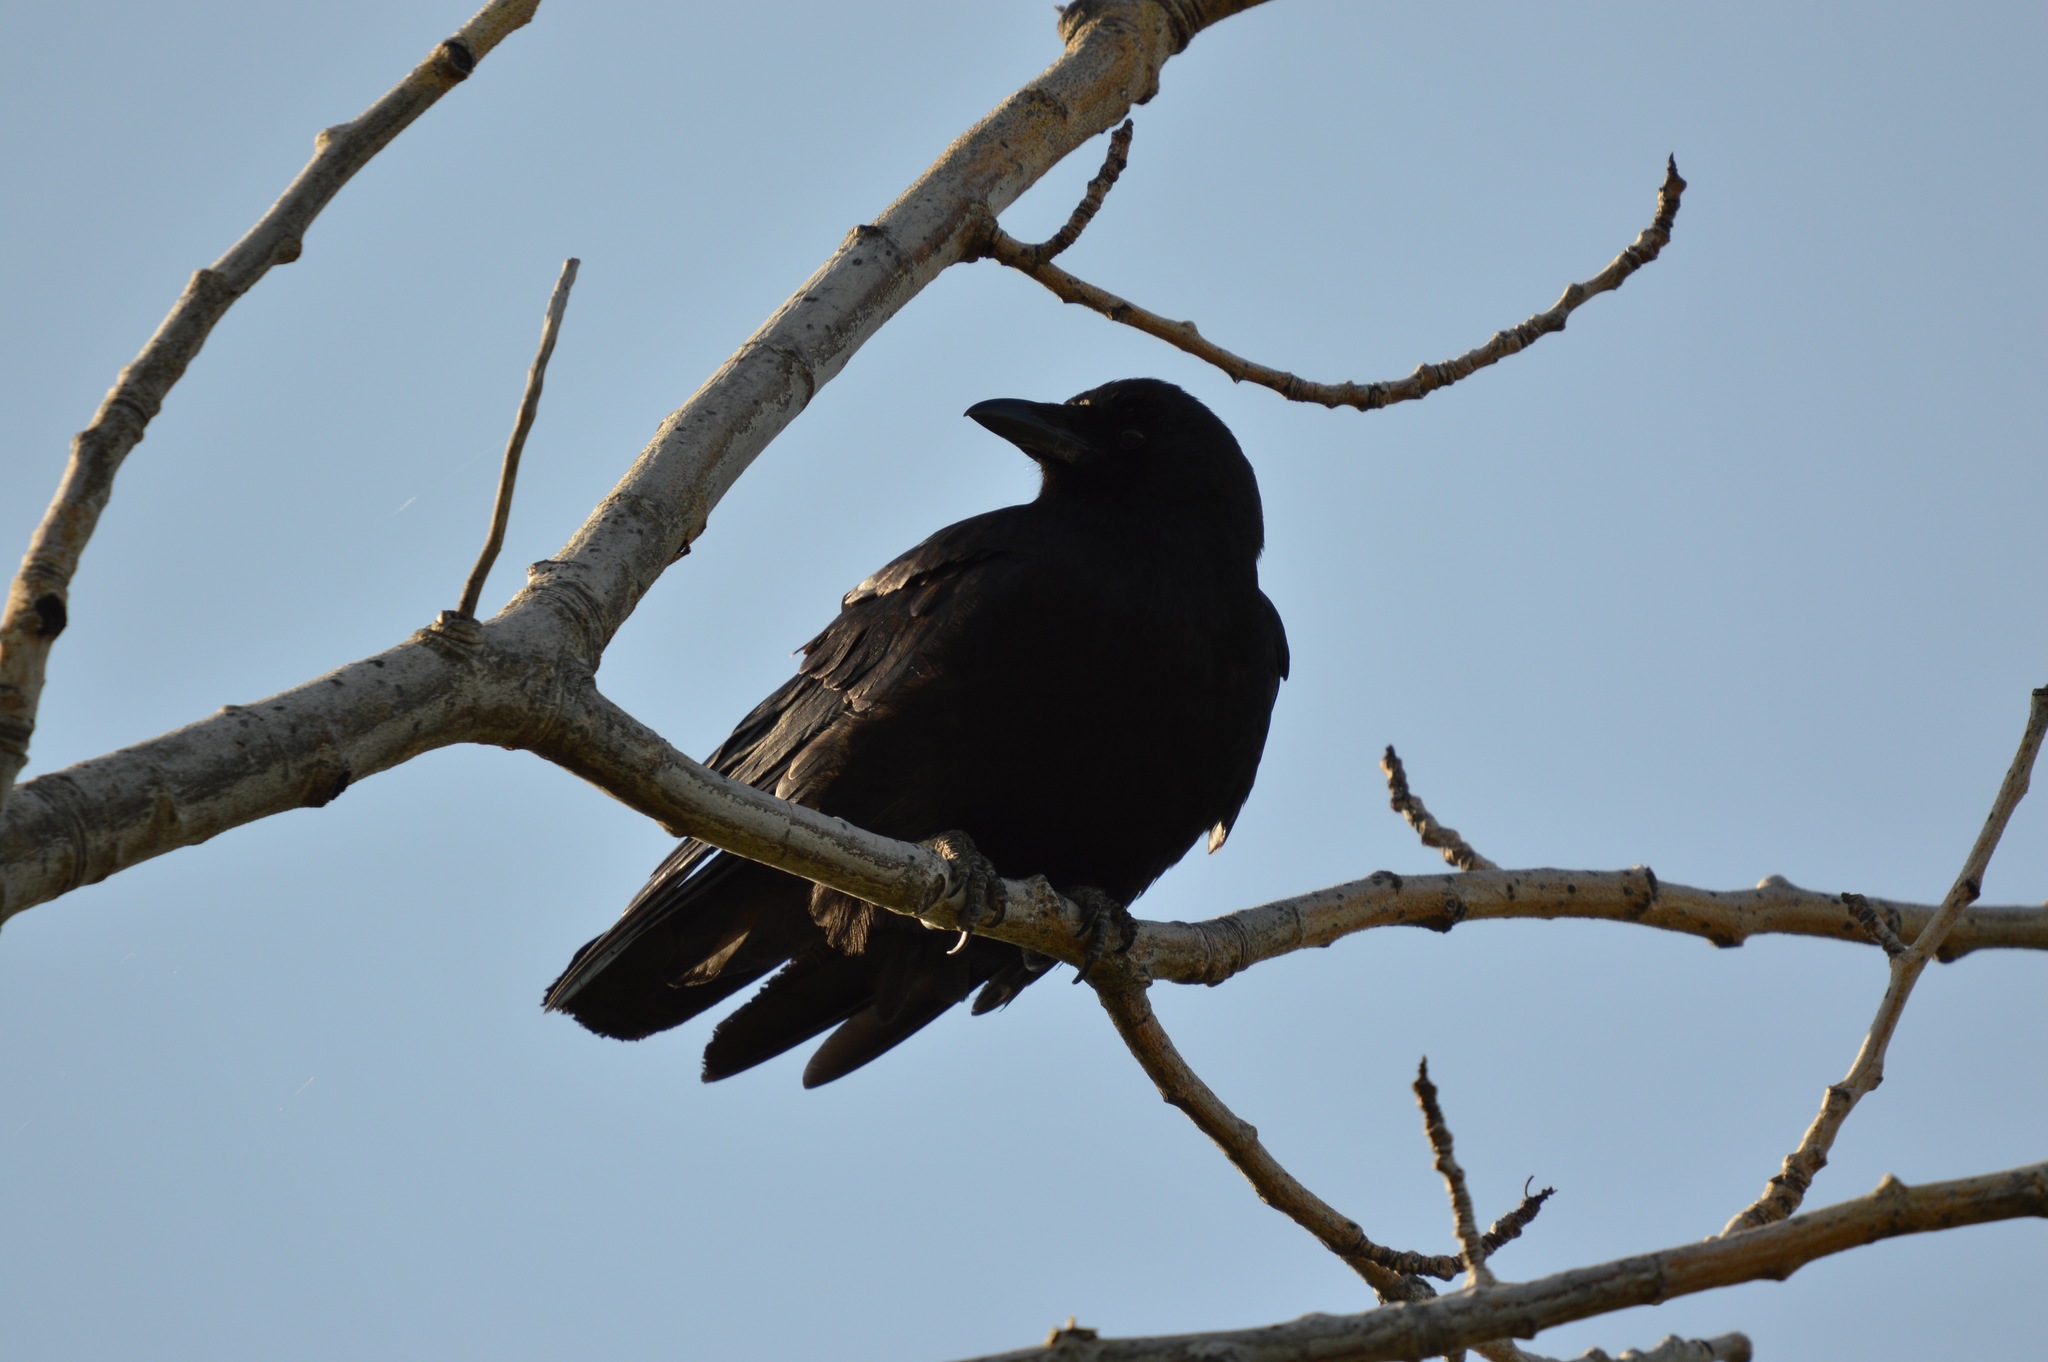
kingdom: Animalia
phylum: Chordata
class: Aves
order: Passeriformes
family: Corvidae
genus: Corvus
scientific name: Corvus brachyrhynchos
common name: American crow
